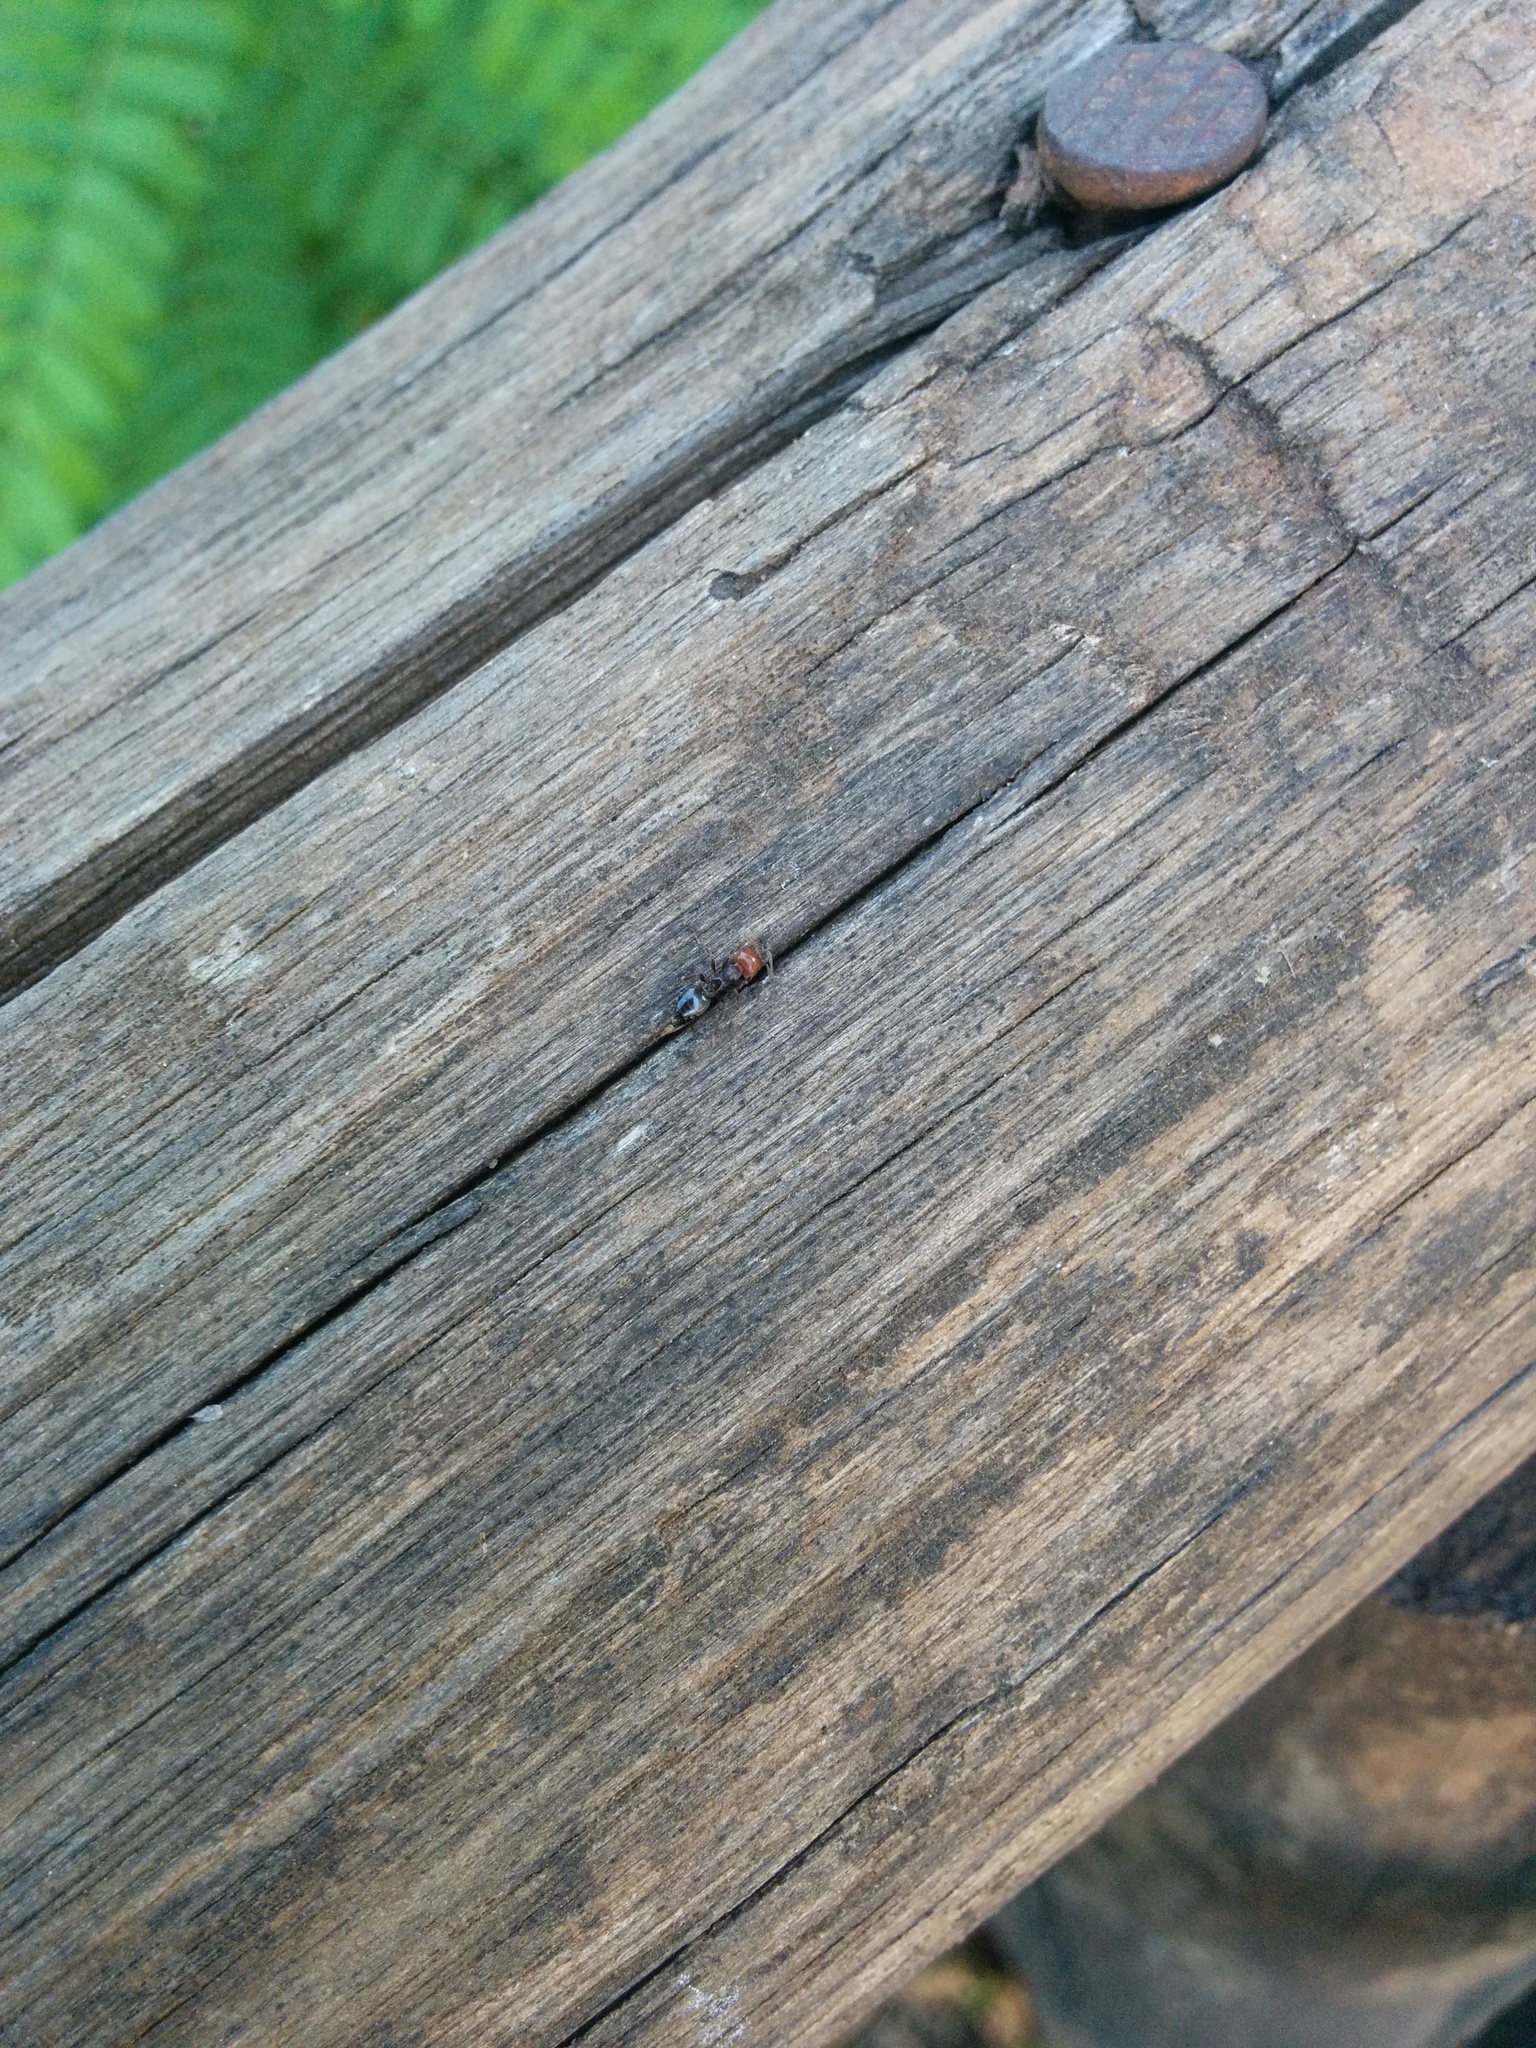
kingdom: Animalia
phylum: Arthropoda
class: Insecta
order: Hymenoptera
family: Formicidae
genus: Crematogaster
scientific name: Crematogaster scutellaris
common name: Fourmi du liège
